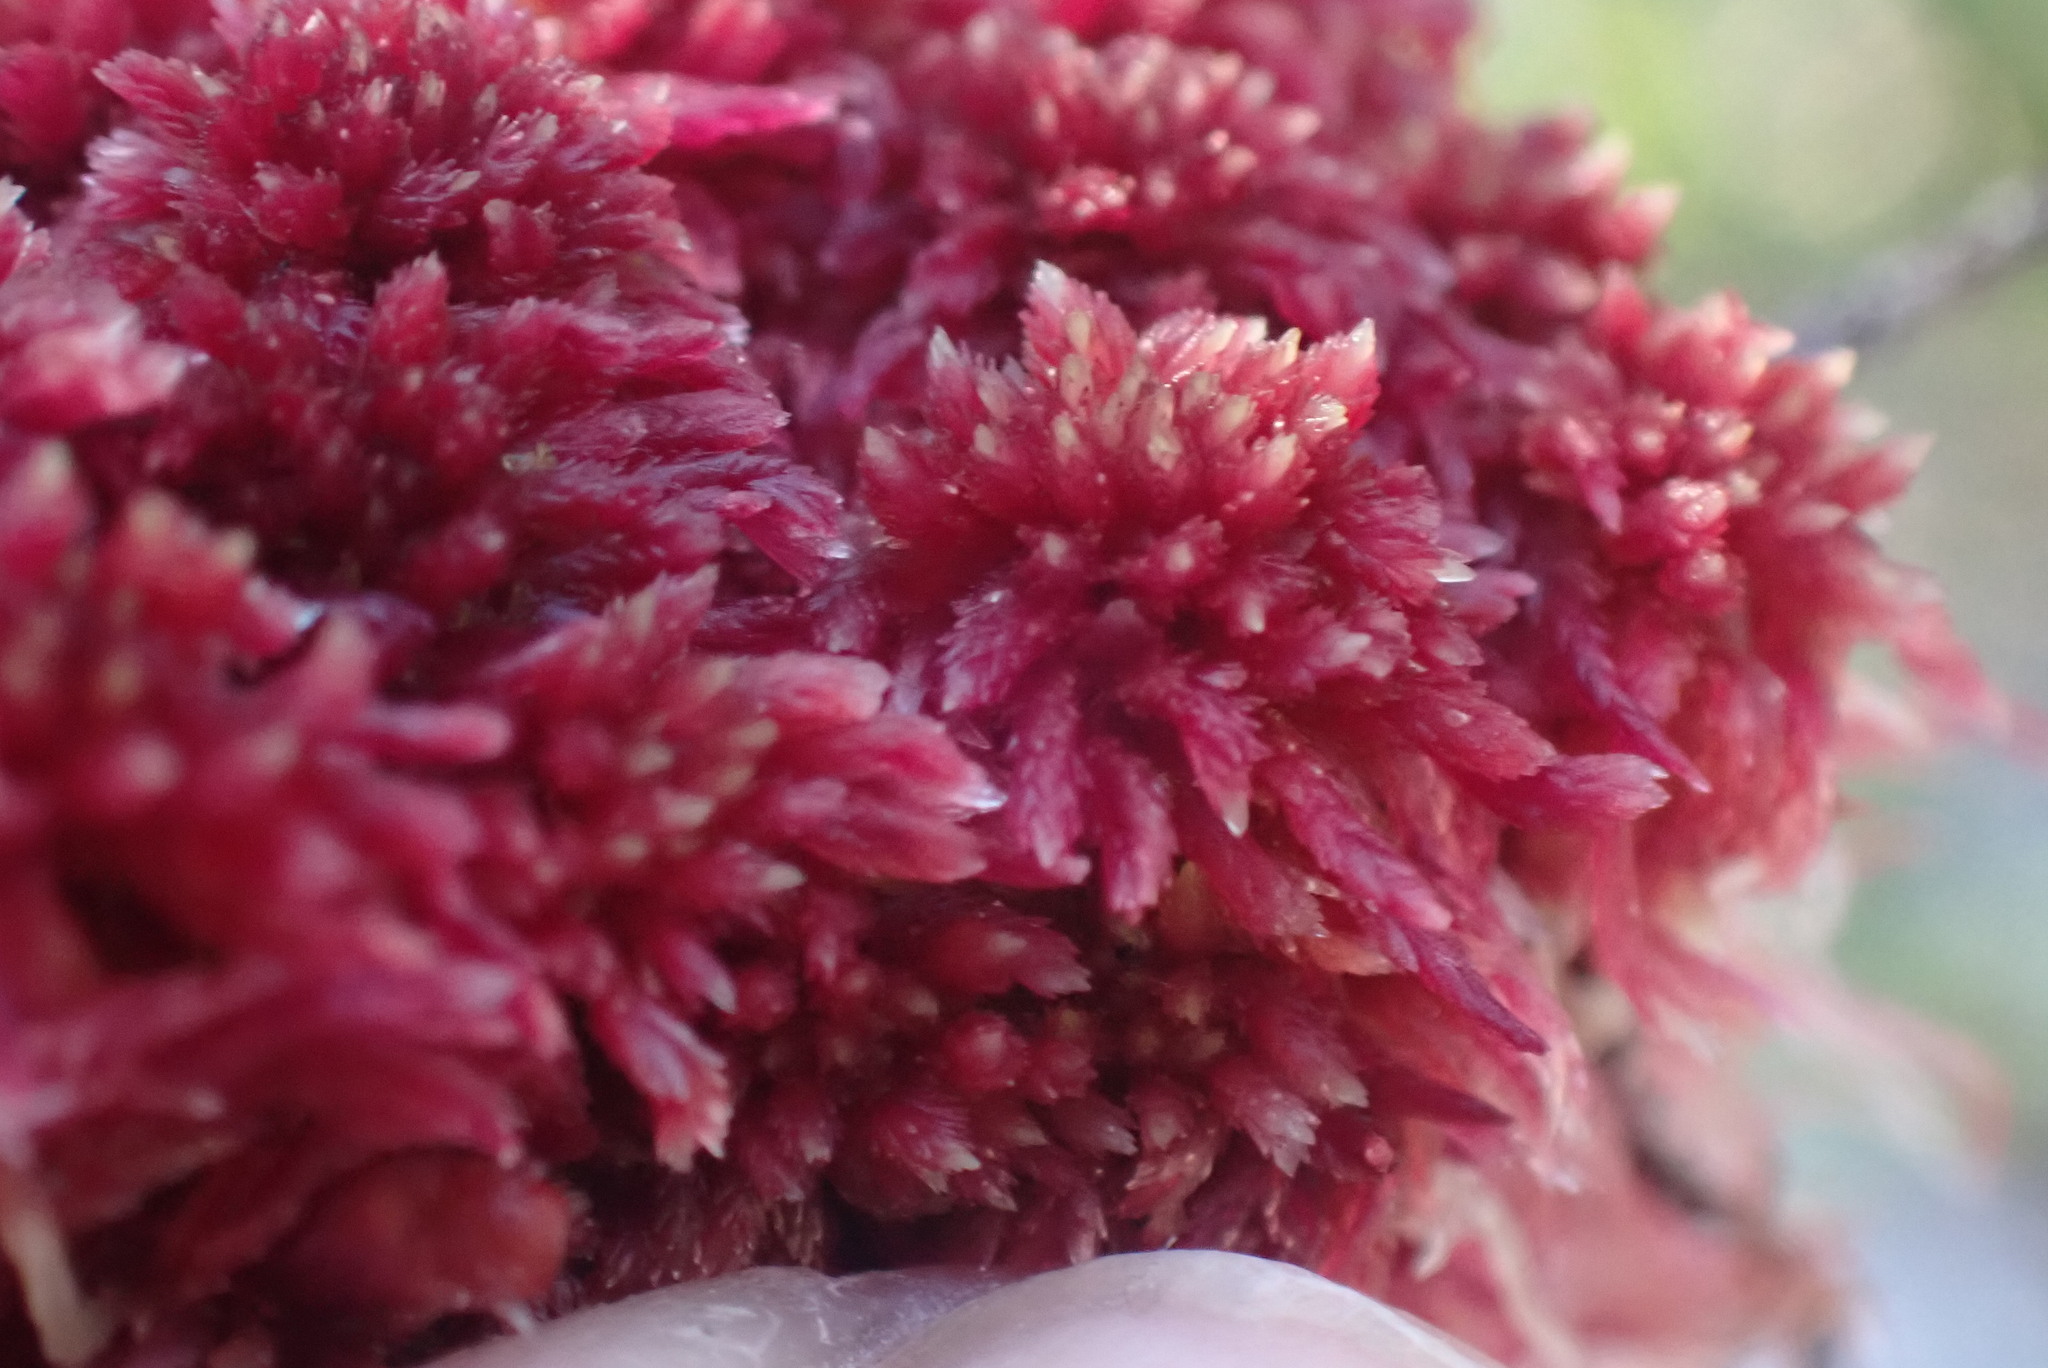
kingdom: Plantae
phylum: Bryophyta
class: Sphagnopsida
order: Sphagnales
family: Sphagnaceae
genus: Sphagnum
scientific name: Sphagnum capillifolium
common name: Small red peat moss
